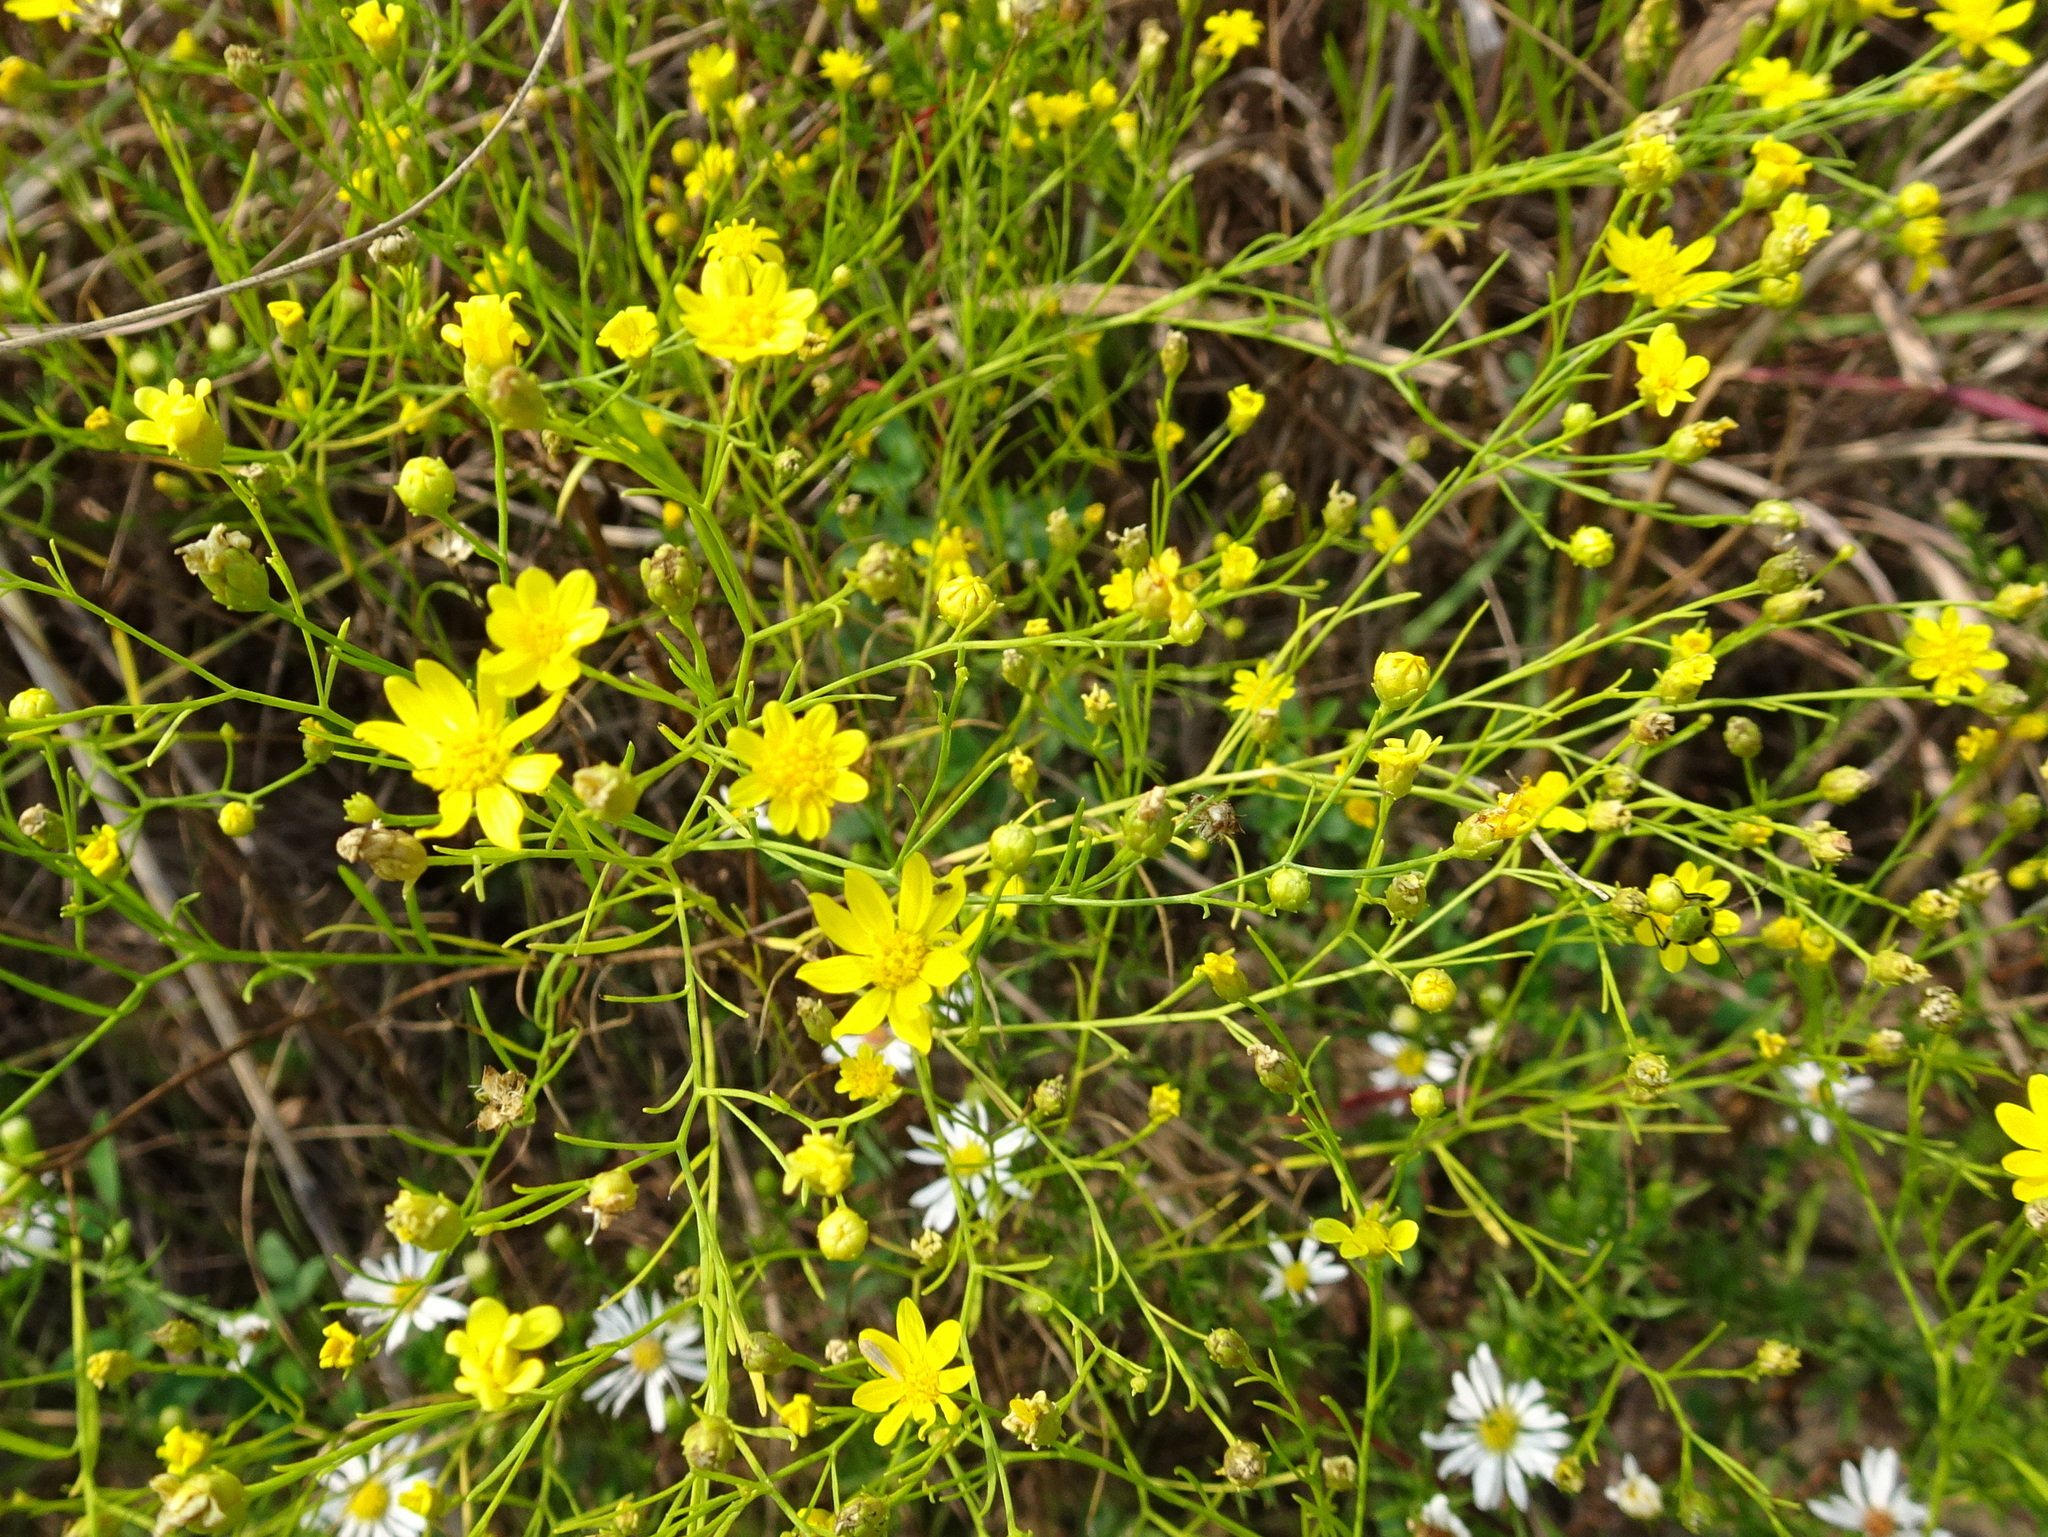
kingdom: Plantae
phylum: Tracheophyta
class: Magnoliopsida
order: Asterales
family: Asteraceae
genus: Amphiachyris
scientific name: Amphiachyris dracunculoides
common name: Broomweed
